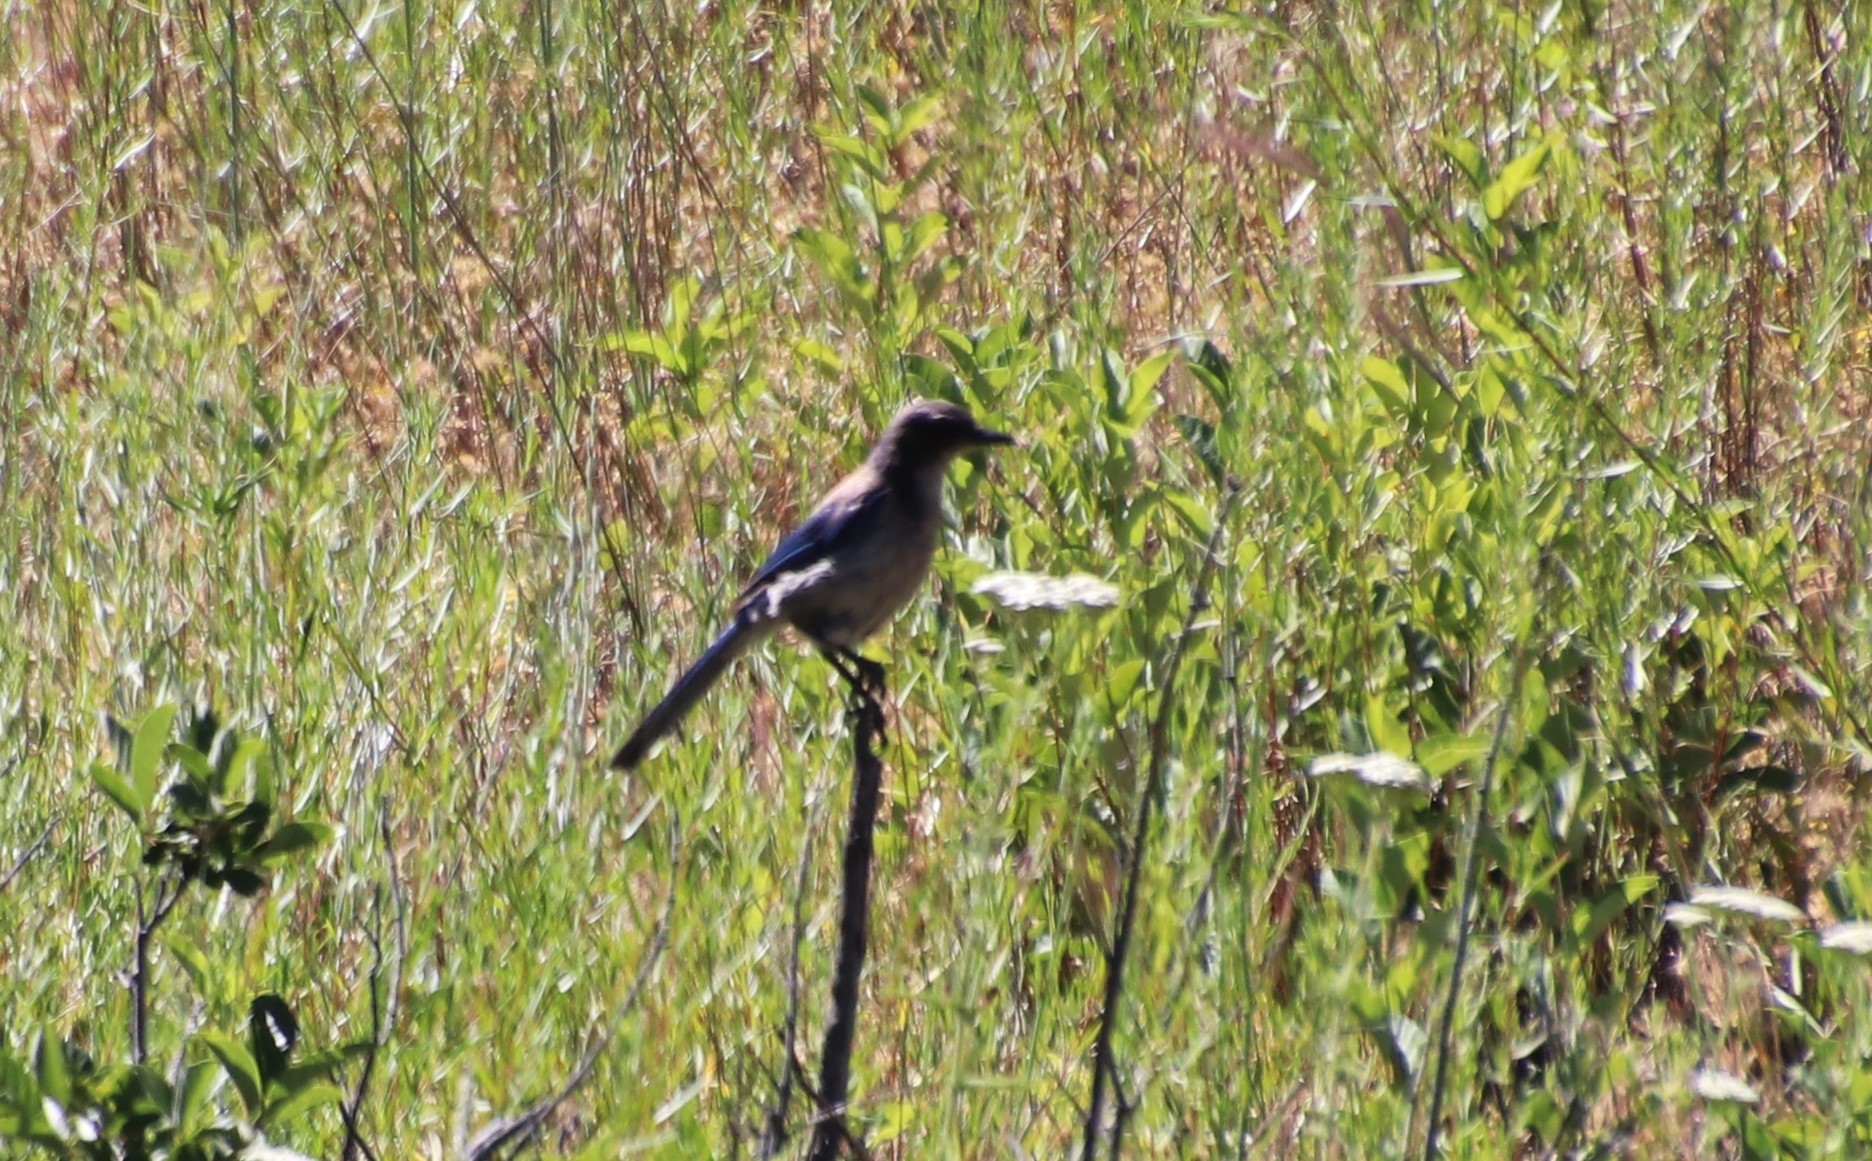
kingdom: Animalia
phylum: Chordata
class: Aves
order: Passeriformes
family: Corvidae
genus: Aphelocoma
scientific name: Aphelocoma californica
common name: California scrub-jay
